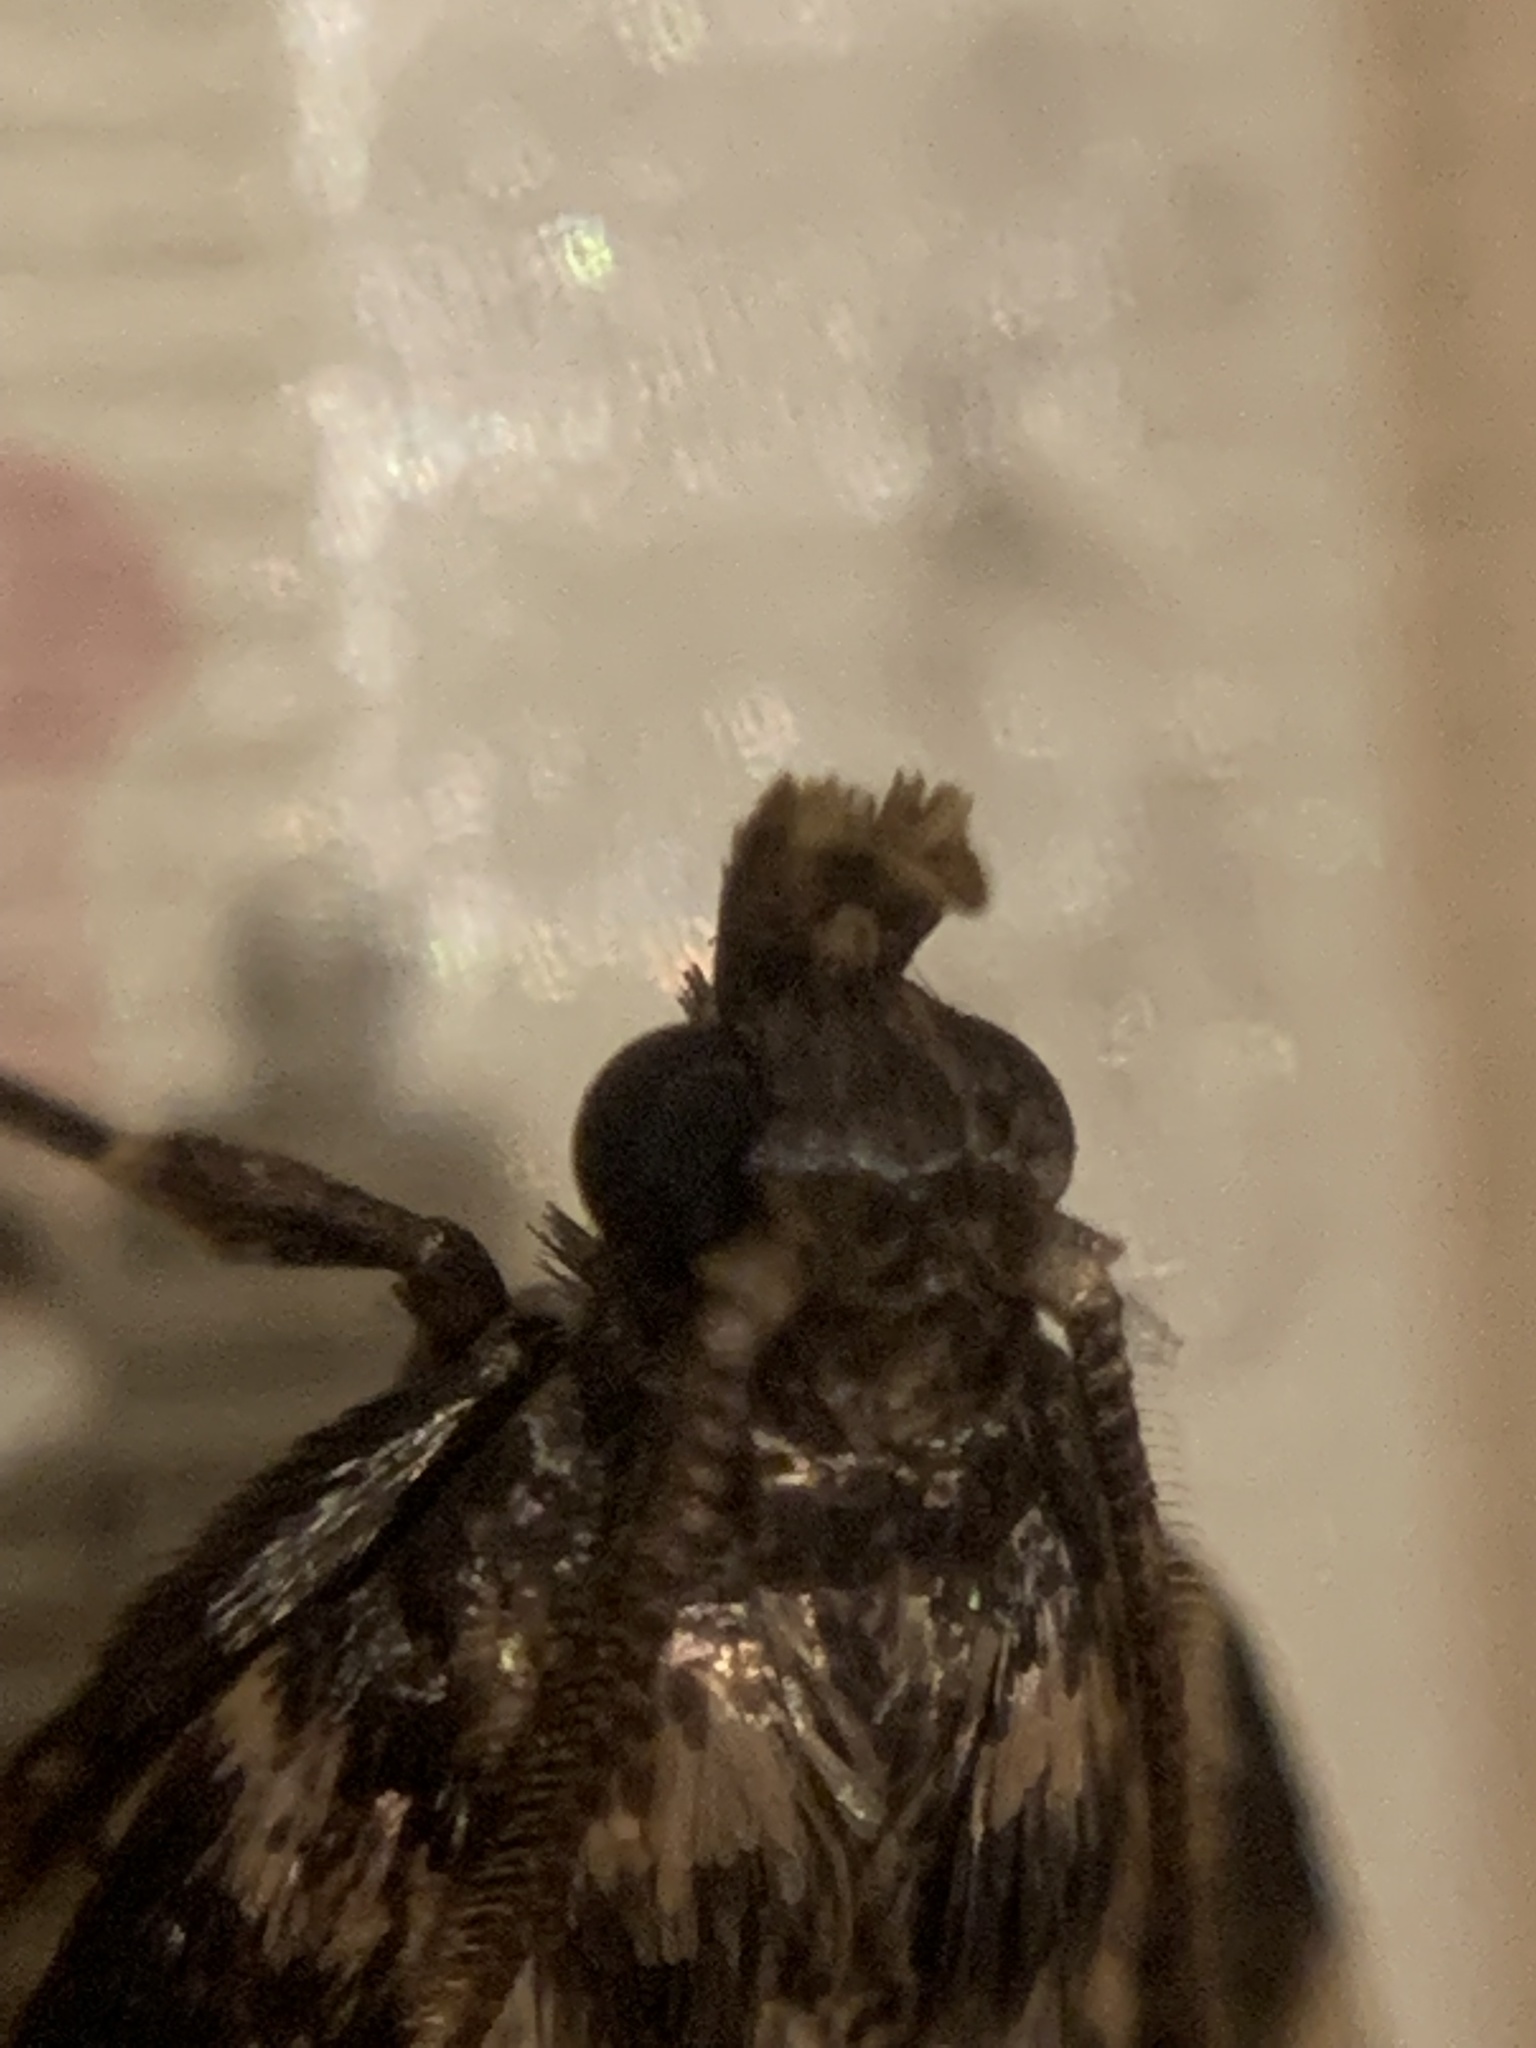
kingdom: Animalia
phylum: Arthropoda
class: Insecta
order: Lepidoptera
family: Pyralidae
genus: Aglossa
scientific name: Aglossa caprealis
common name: Small tabby
